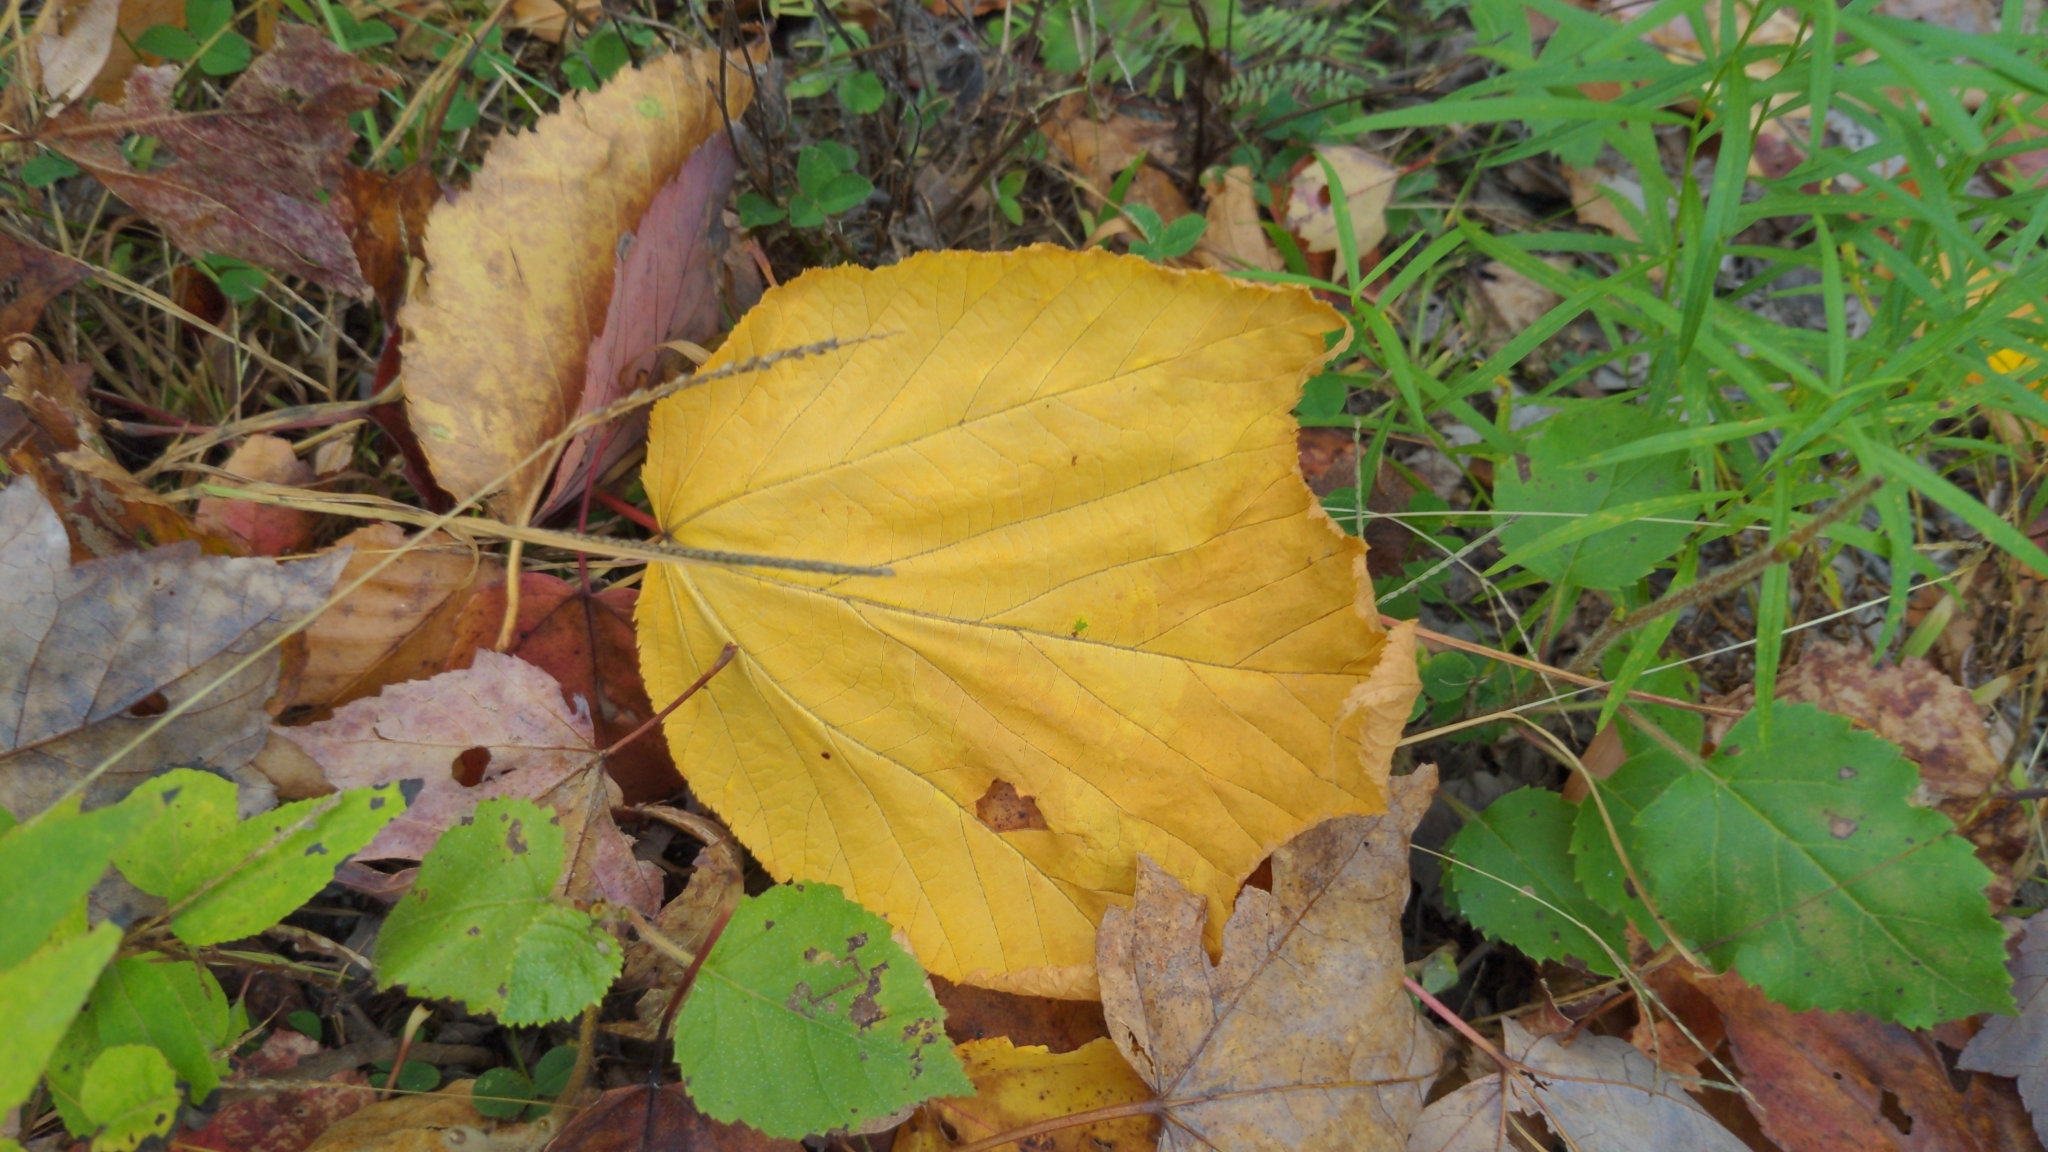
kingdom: Plantae
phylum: Tracheophyta
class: Magnoliopsida
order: Sapindales
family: Sapindaceae
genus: Acer
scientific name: Acer pensylvanicum
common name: Moosewood
